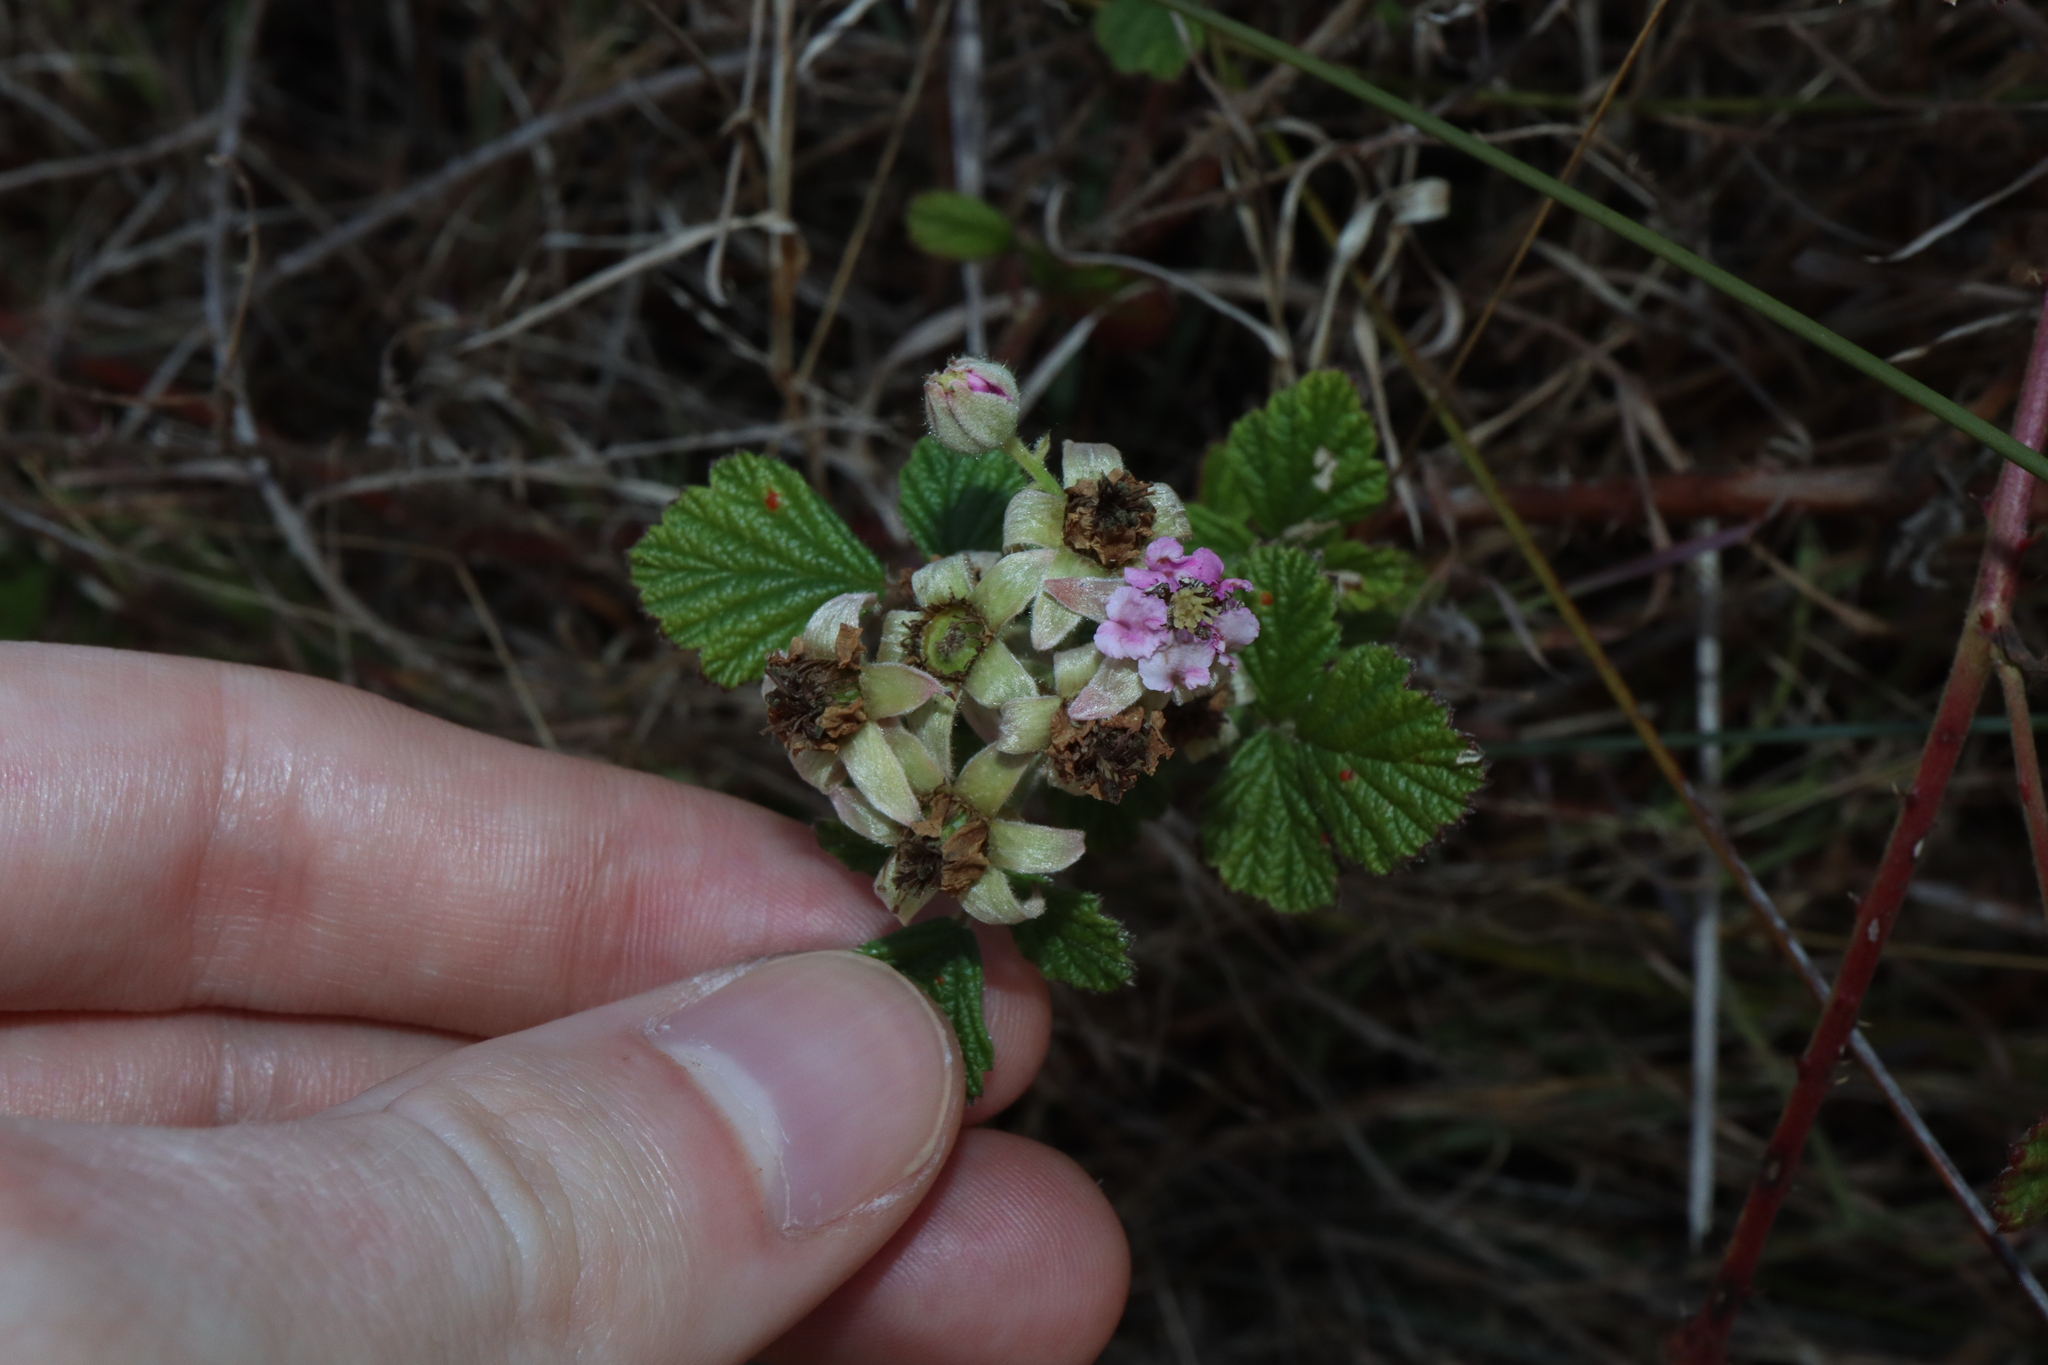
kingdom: Plantae
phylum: Tracheophyta
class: Magnoliopsida
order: Rosales
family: Rosaceae
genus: Rubus
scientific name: Rubus parvifolius
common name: Threeleaf blackberry
